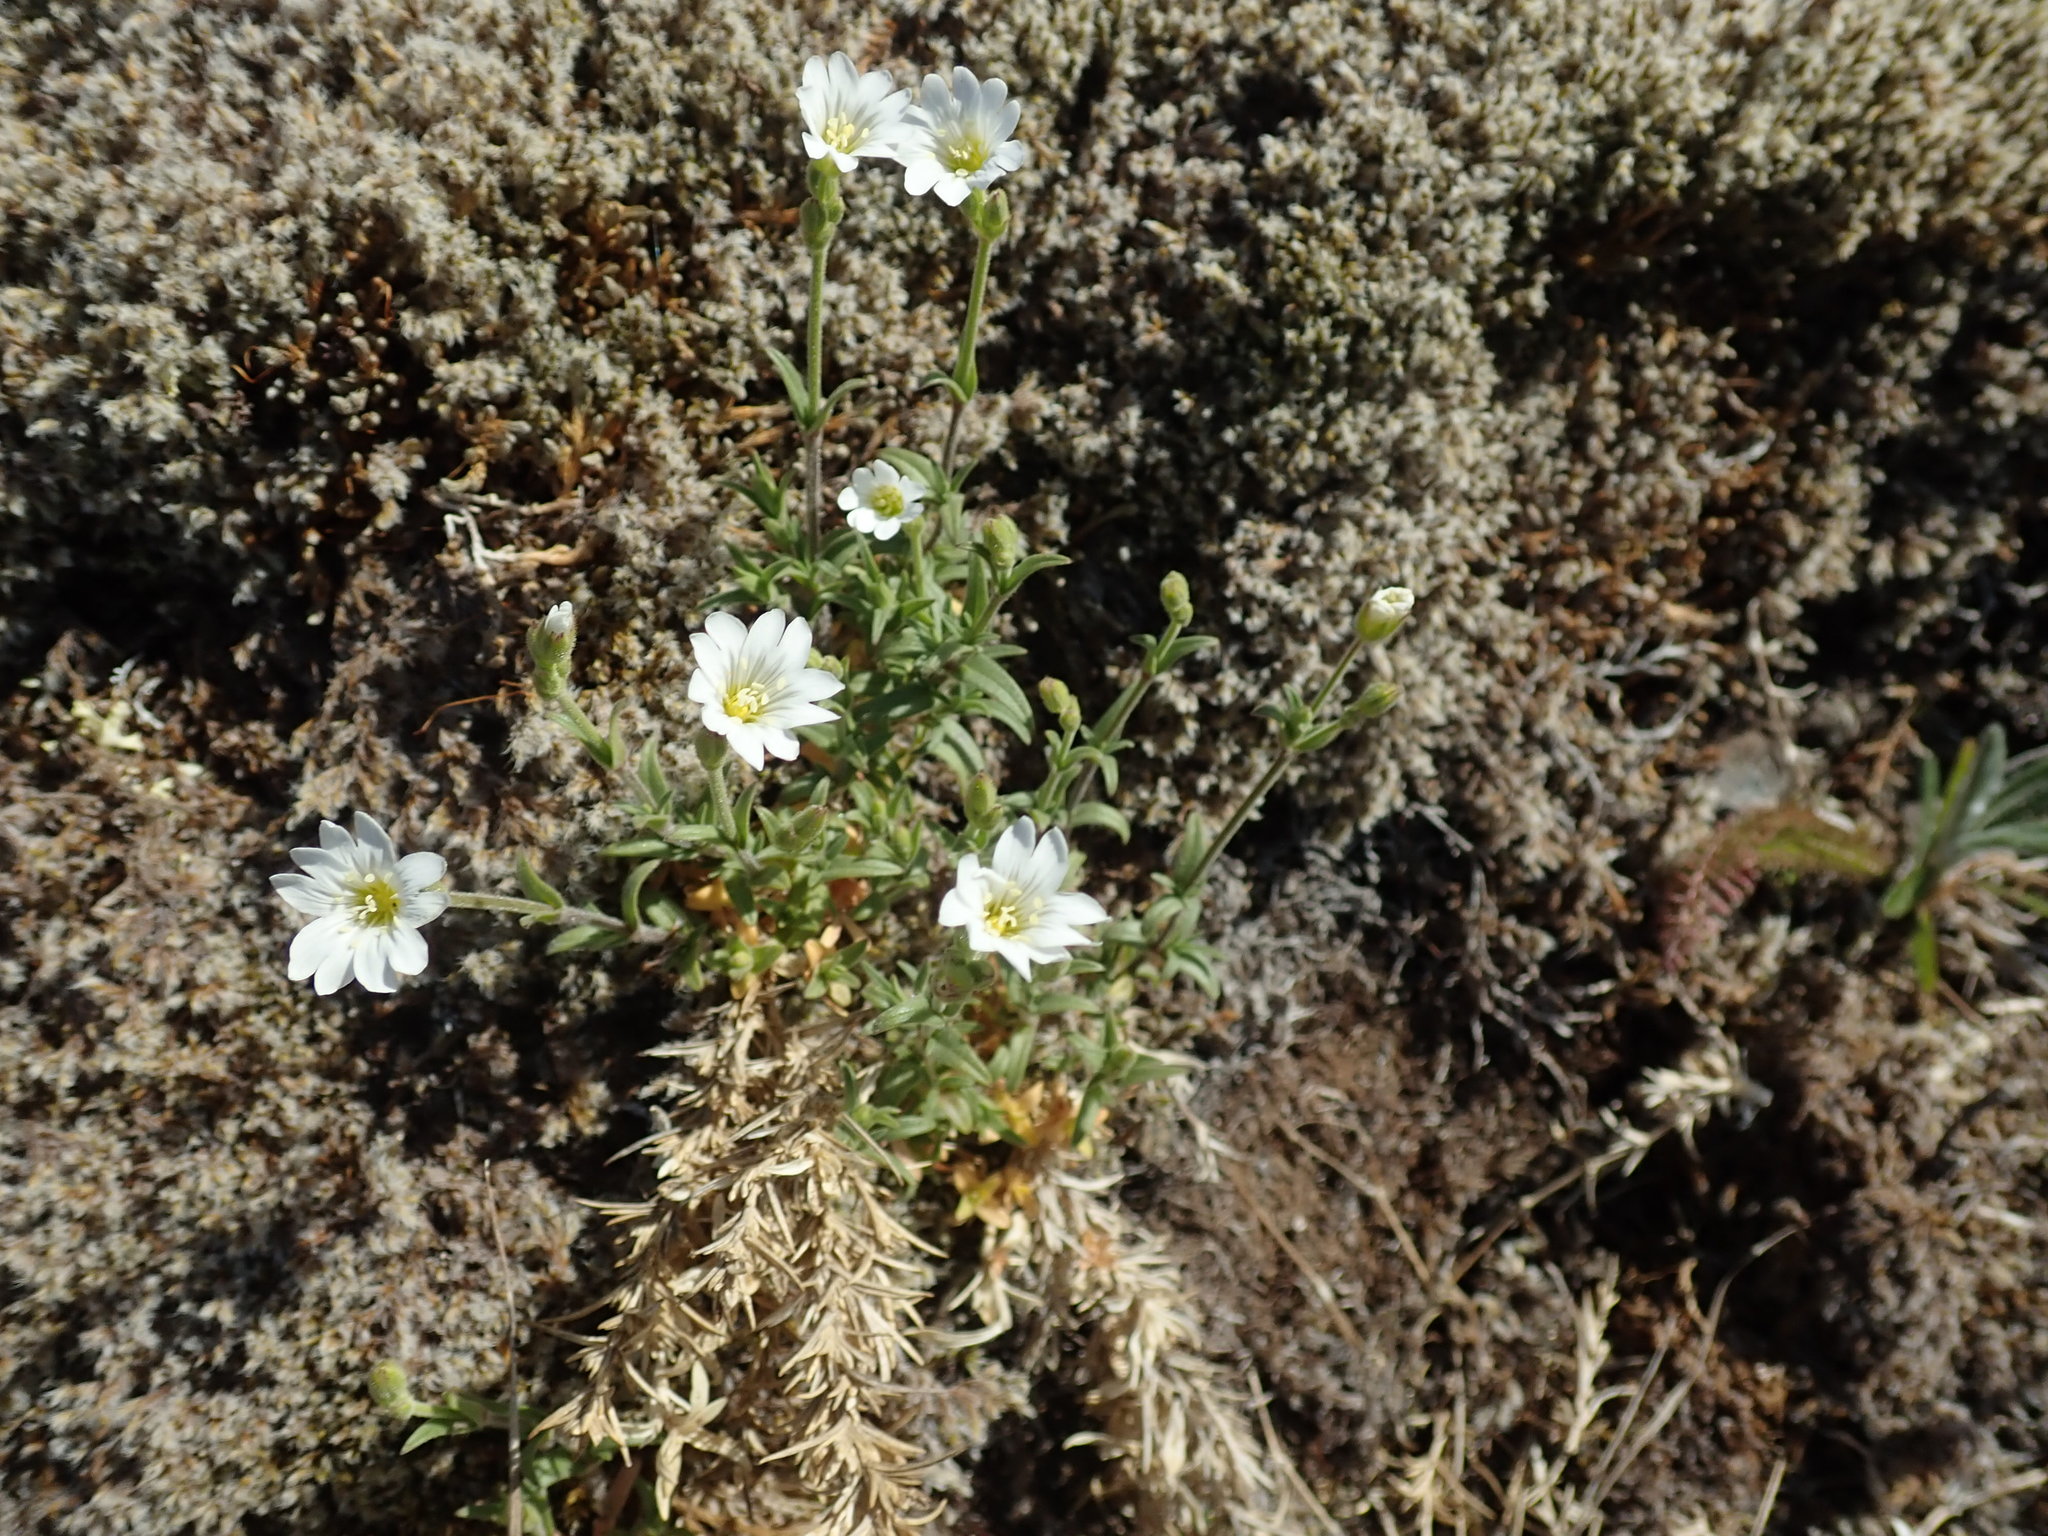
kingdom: Plantae
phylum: Tracheophyta
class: Magnoliopsida
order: Caryophyllales
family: Caryophyllaceae
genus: Cerastium
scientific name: Cerastium arvense
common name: Field mouse-ear
